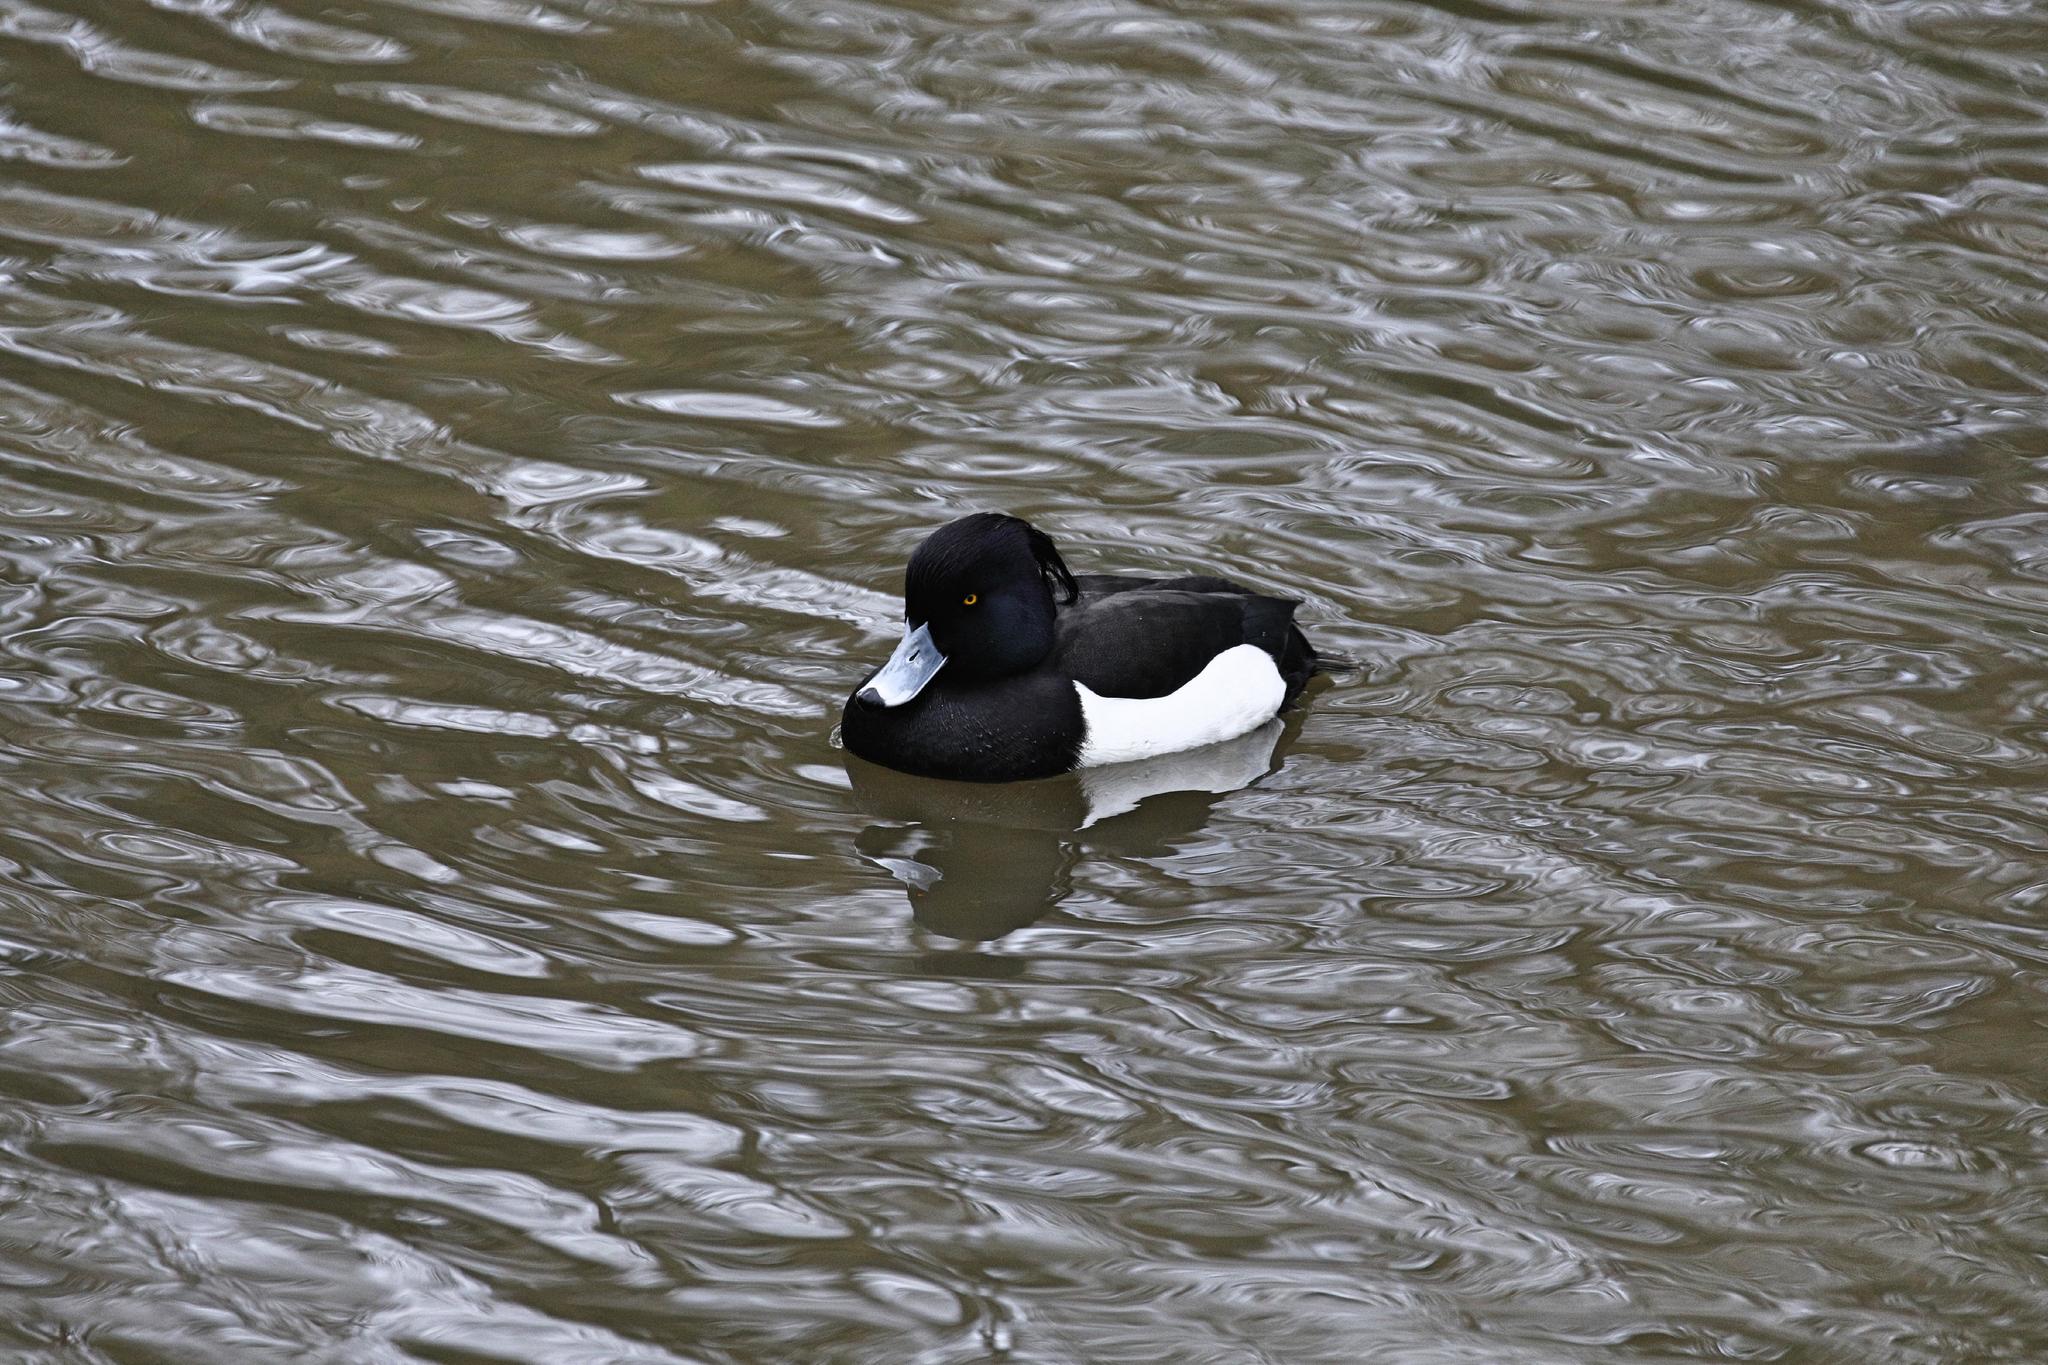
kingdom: Animalia
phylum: Chordata
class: Aves
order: Anseriformes
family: Anatidae
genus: Aythya
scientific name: Aythya fuligula
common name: Tufted duck
